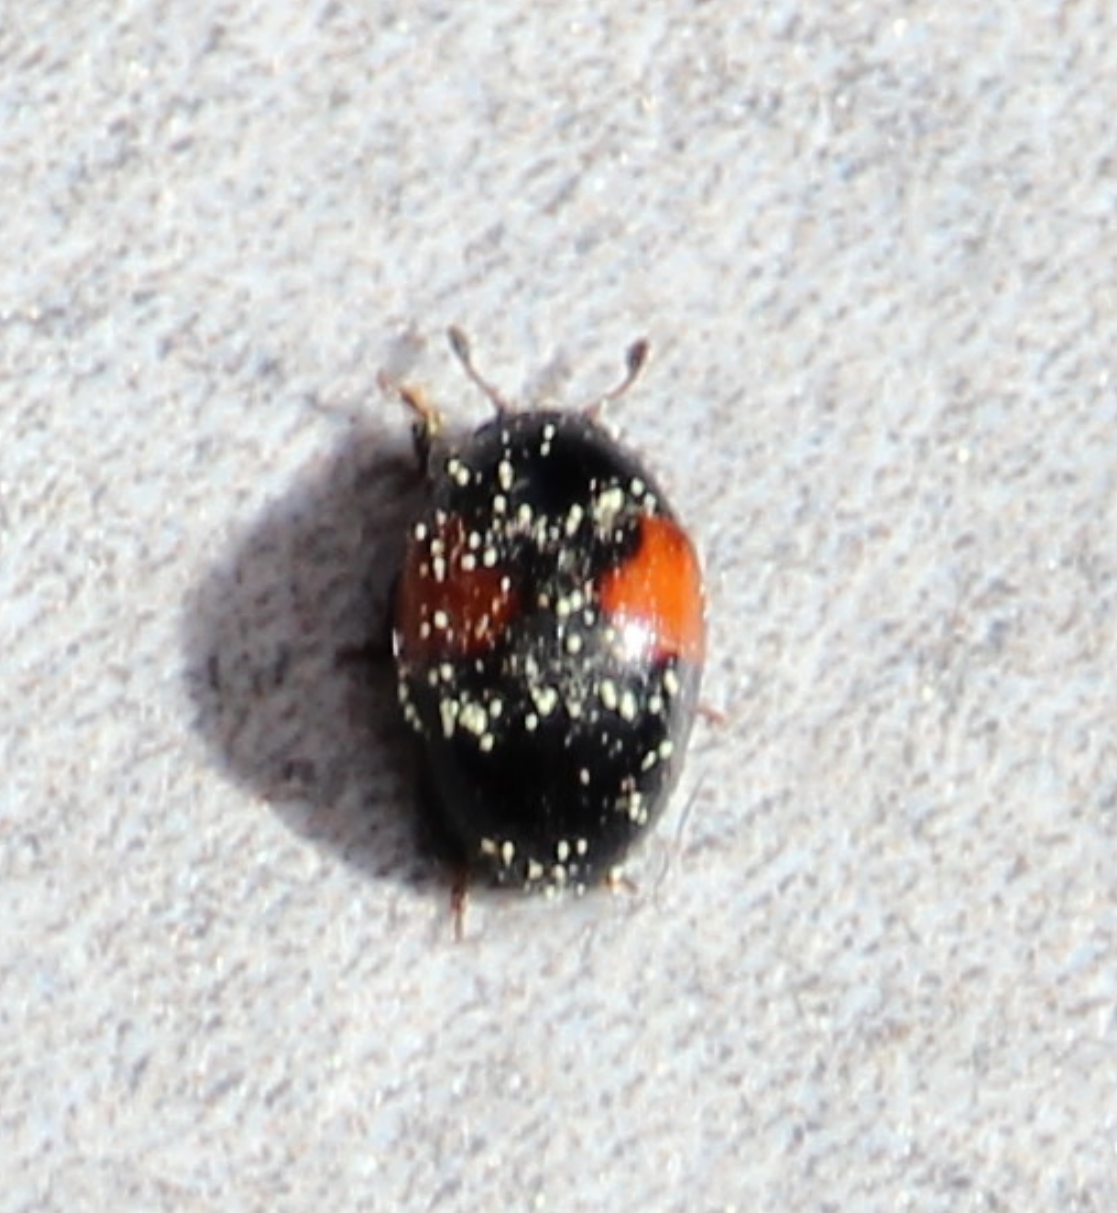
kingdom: Animalia
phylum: Arthropoda
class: Insecta
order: Coleoptera
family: Erotylidae
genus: Tritoma
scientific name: Tritoma bipustulata
